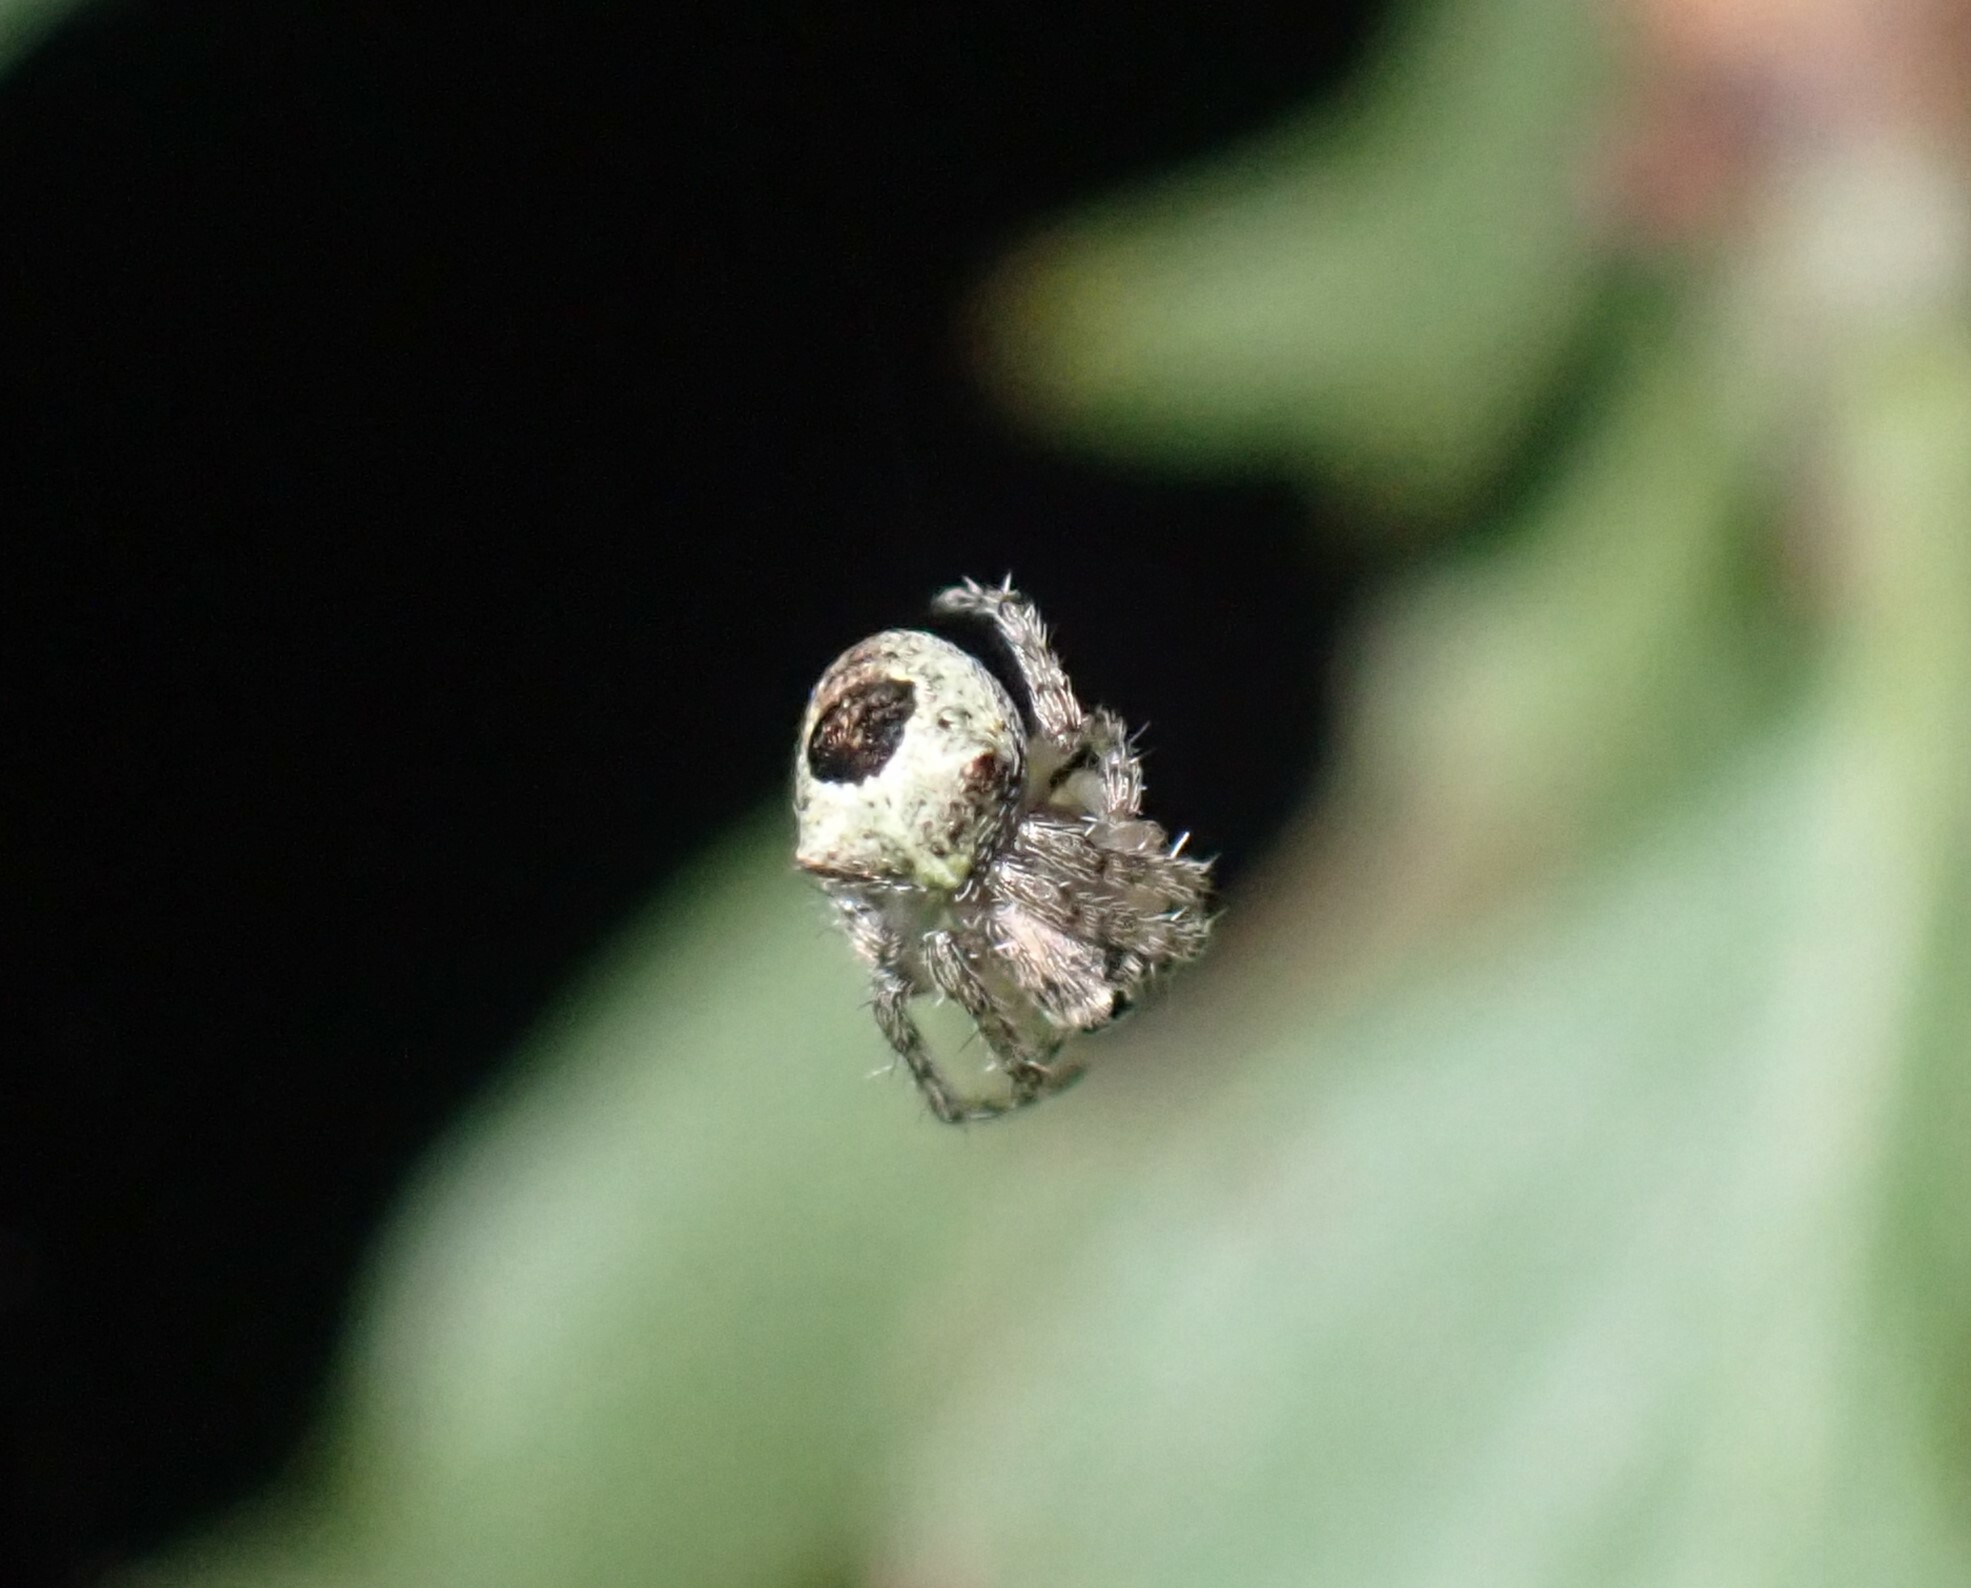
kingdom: Animalia
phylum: Arthropoda
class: Arachnida
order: Araneae
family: Araneidae
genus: Gibbaranea
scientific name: Gibbaranea gibbosa
